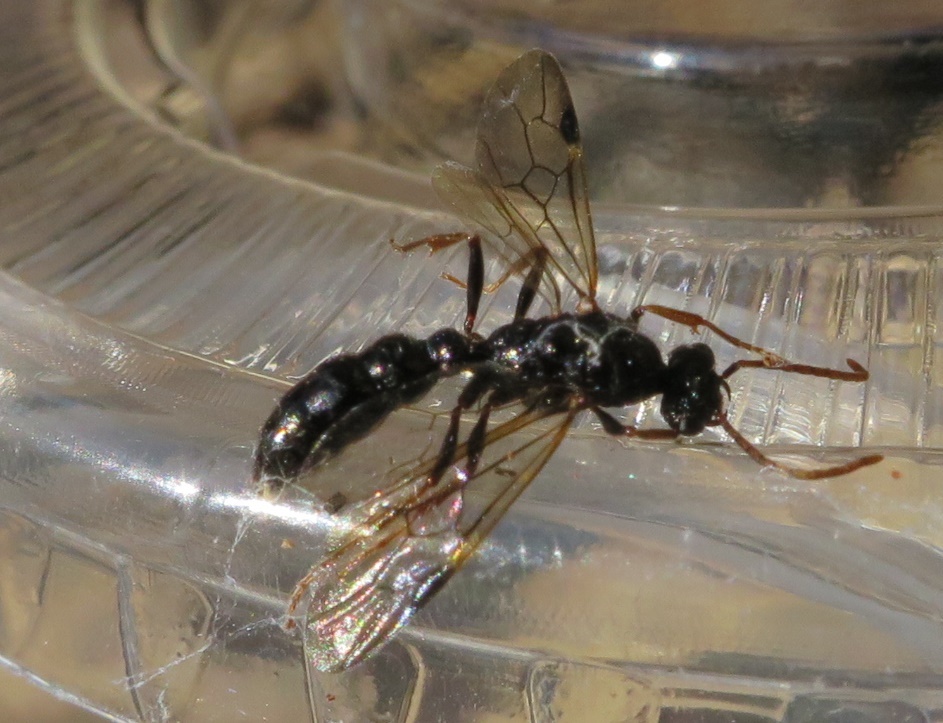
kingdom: Animalia
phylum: Arthropoda
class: Insecta
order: Hymenoptera
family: Formicidae
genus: Amblyopone
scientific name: Amblyopone australis
